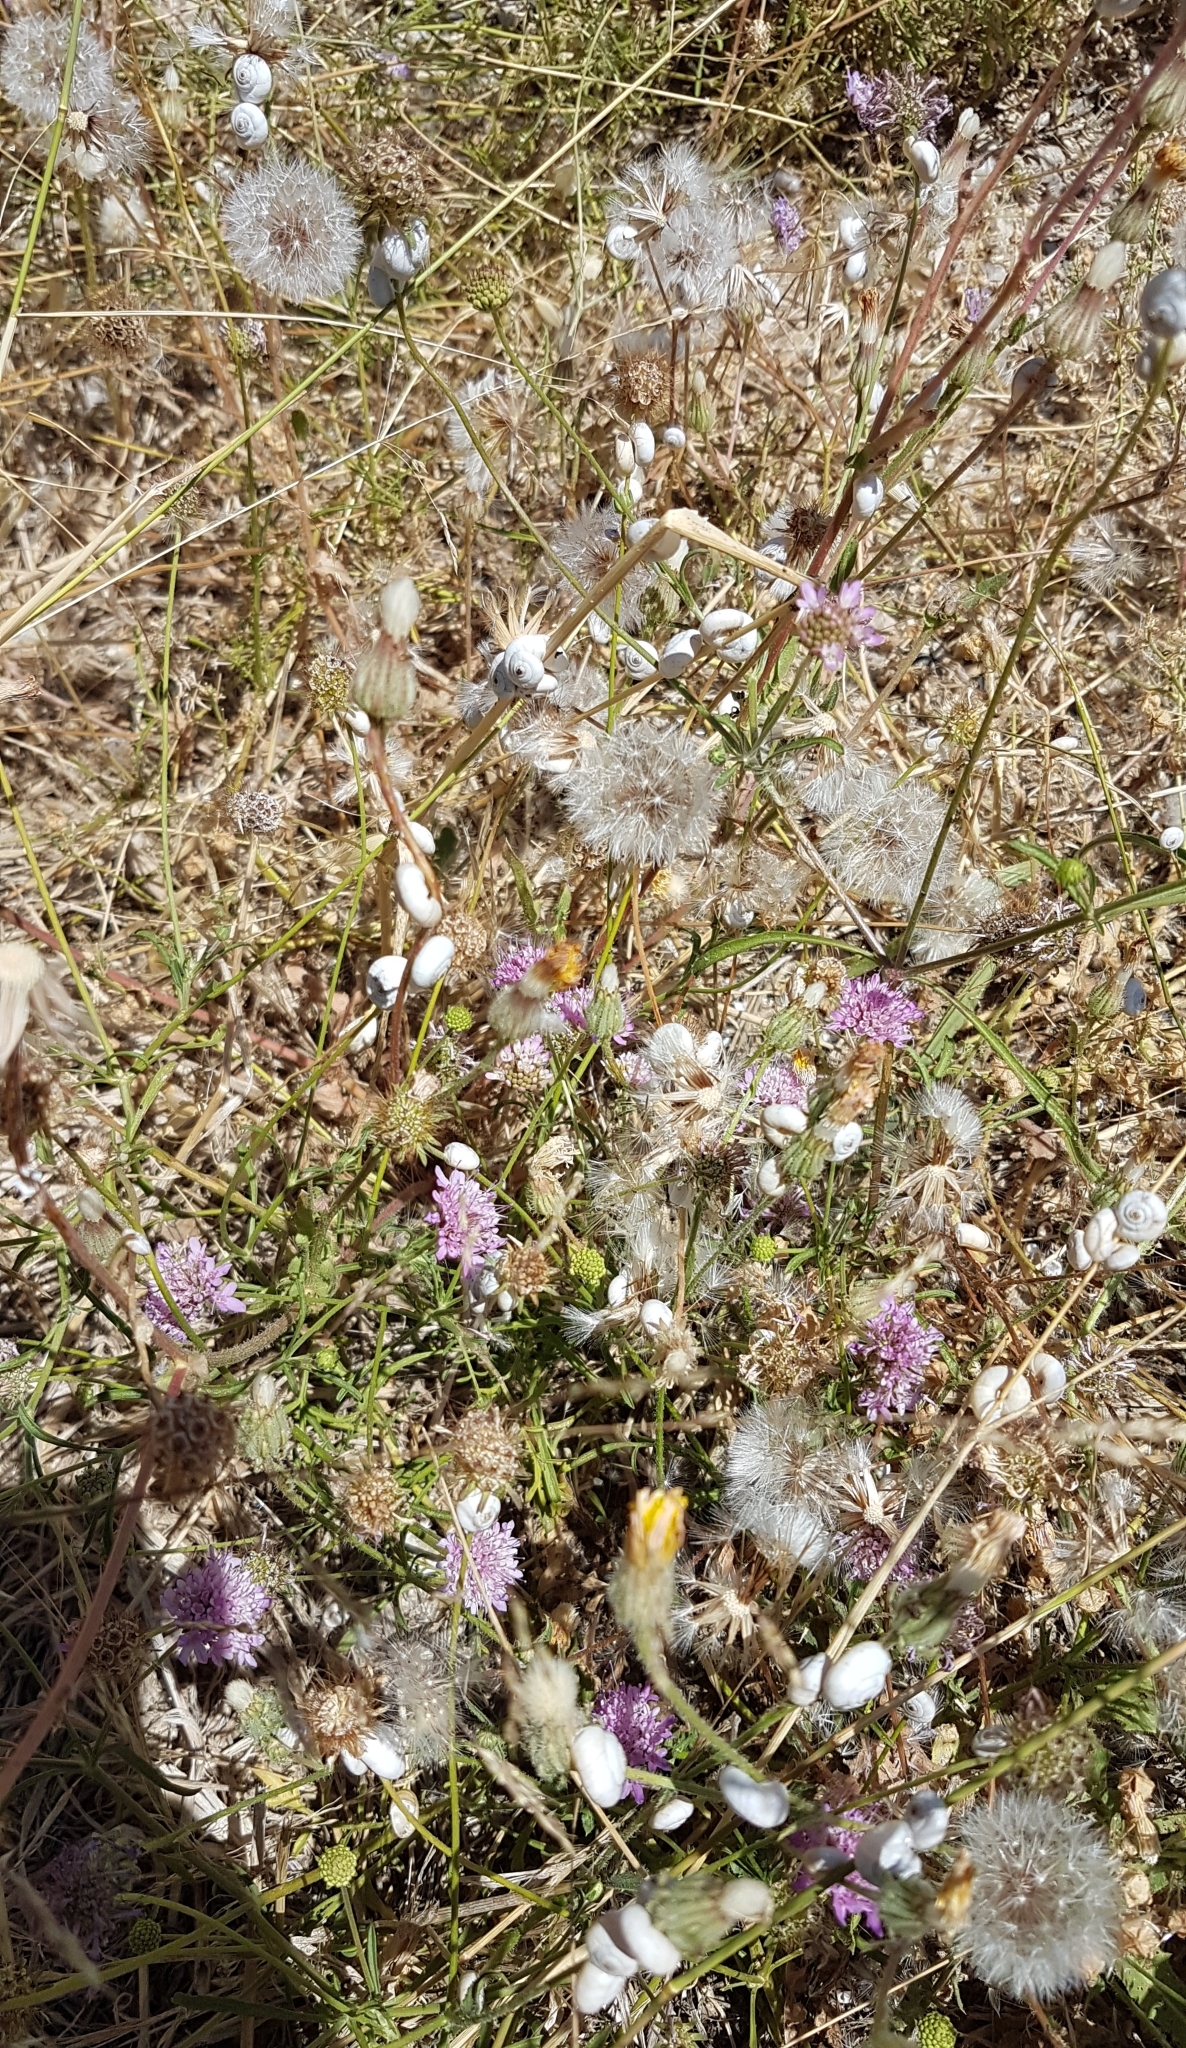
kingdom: Animalia
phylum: Mollusca
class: Gastropoda
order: Stylommatophora
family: Geomitridae
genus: Xeropicta
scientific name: Xeropicta derbentina
